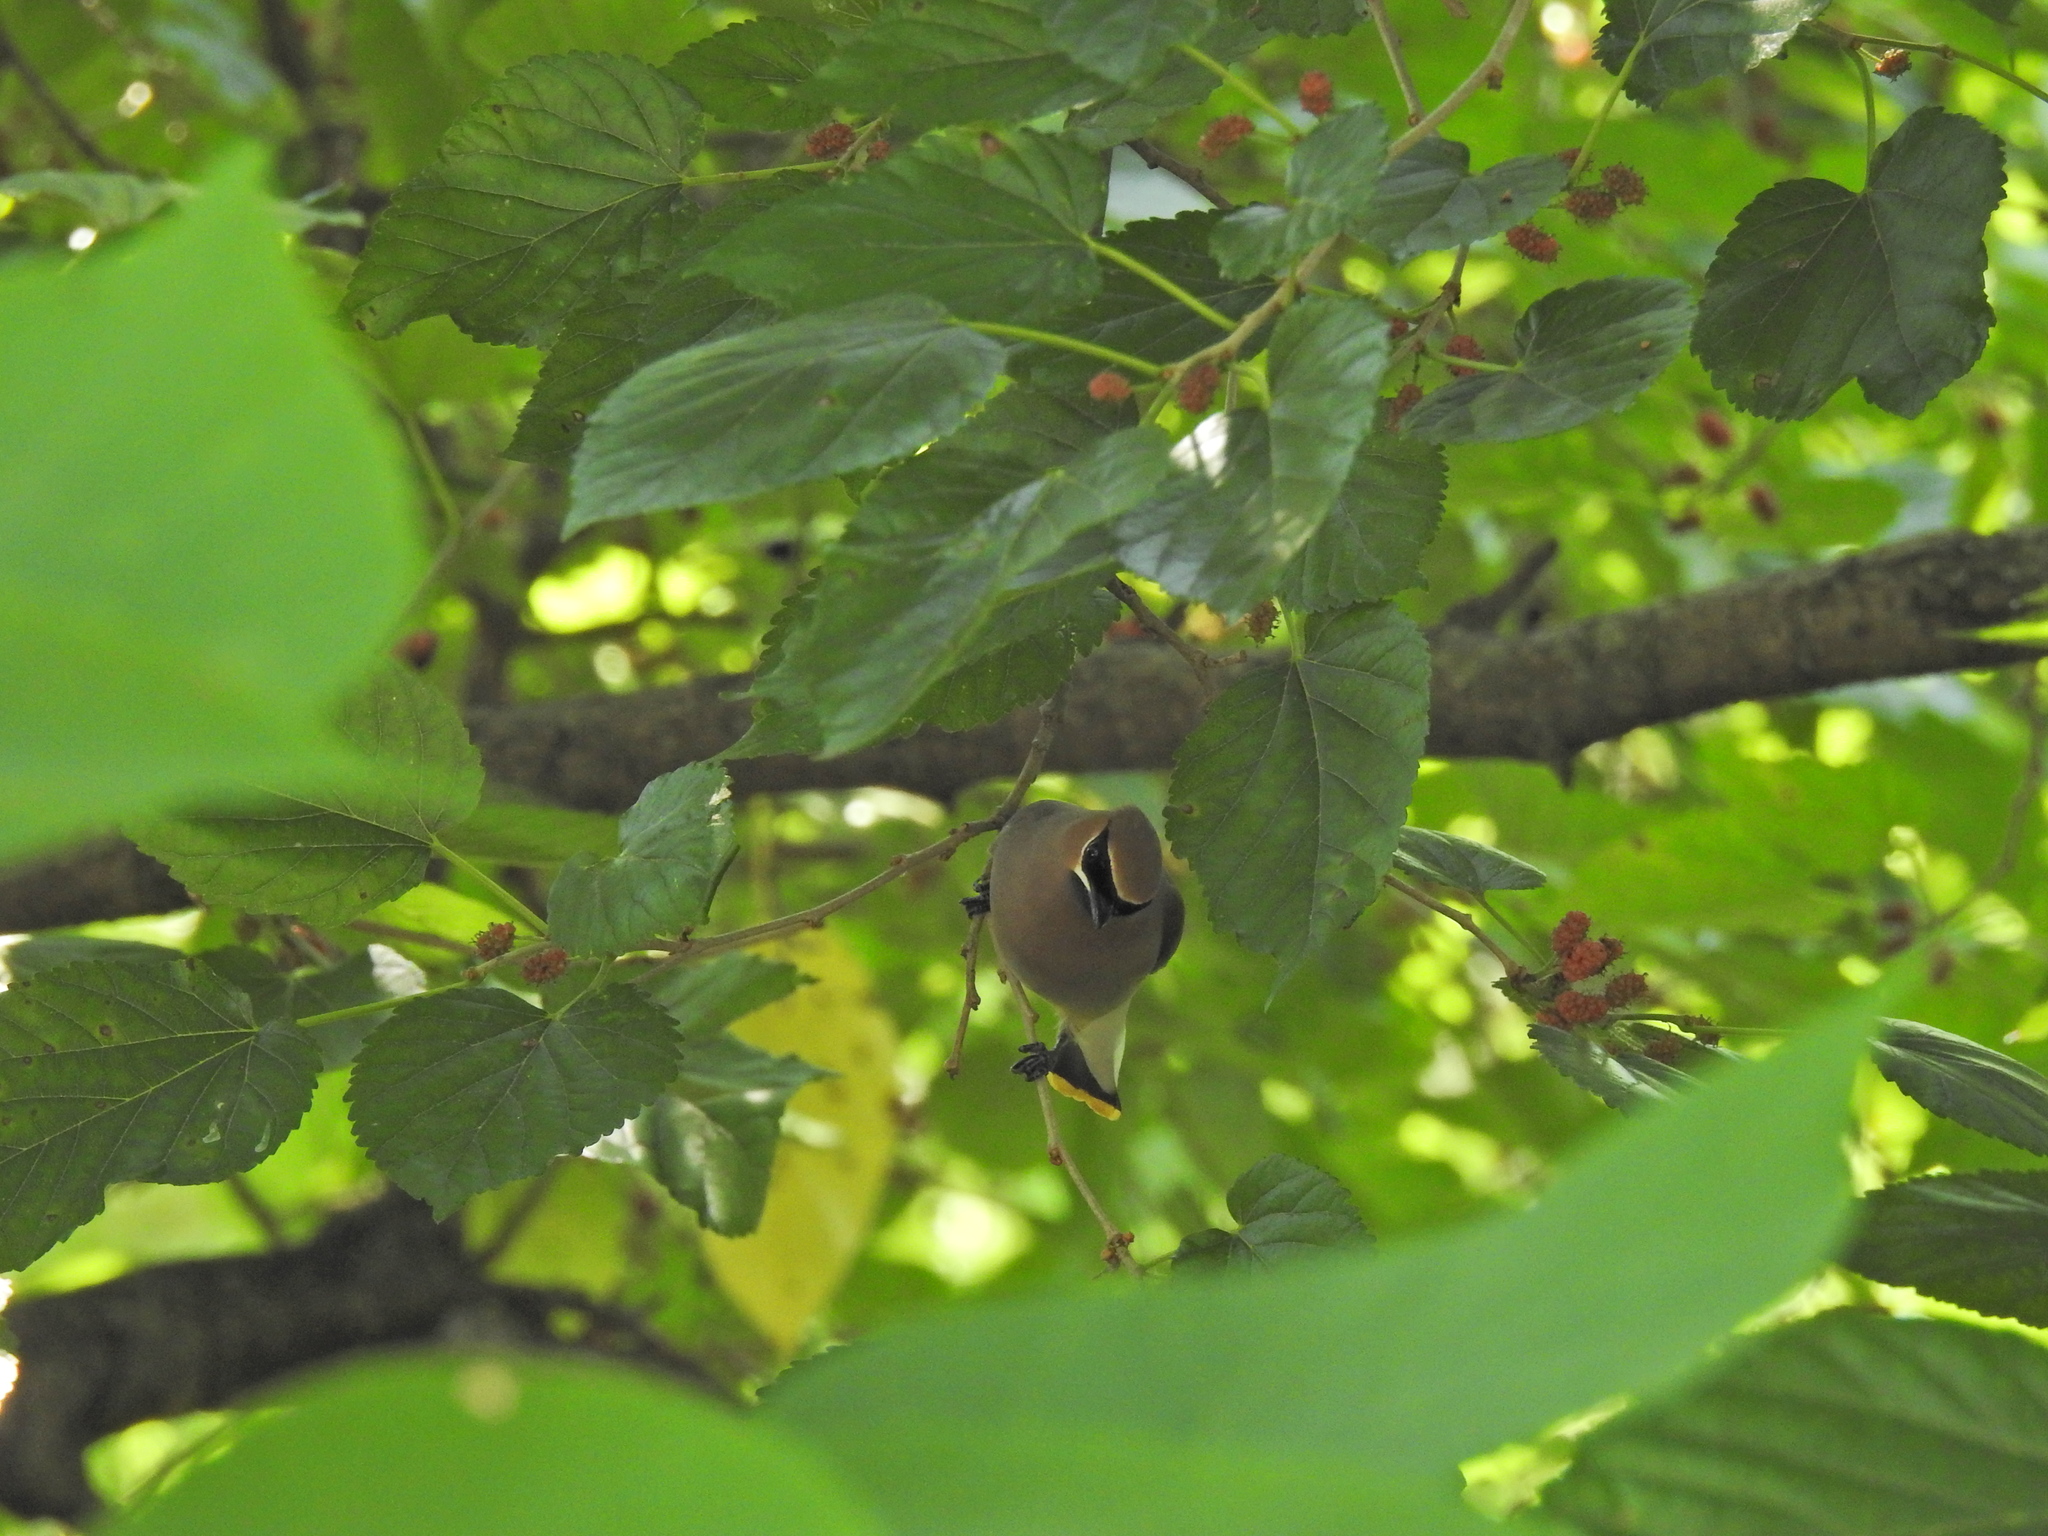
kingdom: Animalia
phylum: Chordata
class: Aves
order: Passeriformes
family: Bombycillidae
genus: Bombycilla
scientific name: Bombycilla cedrorum
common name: Cedar waxwing
